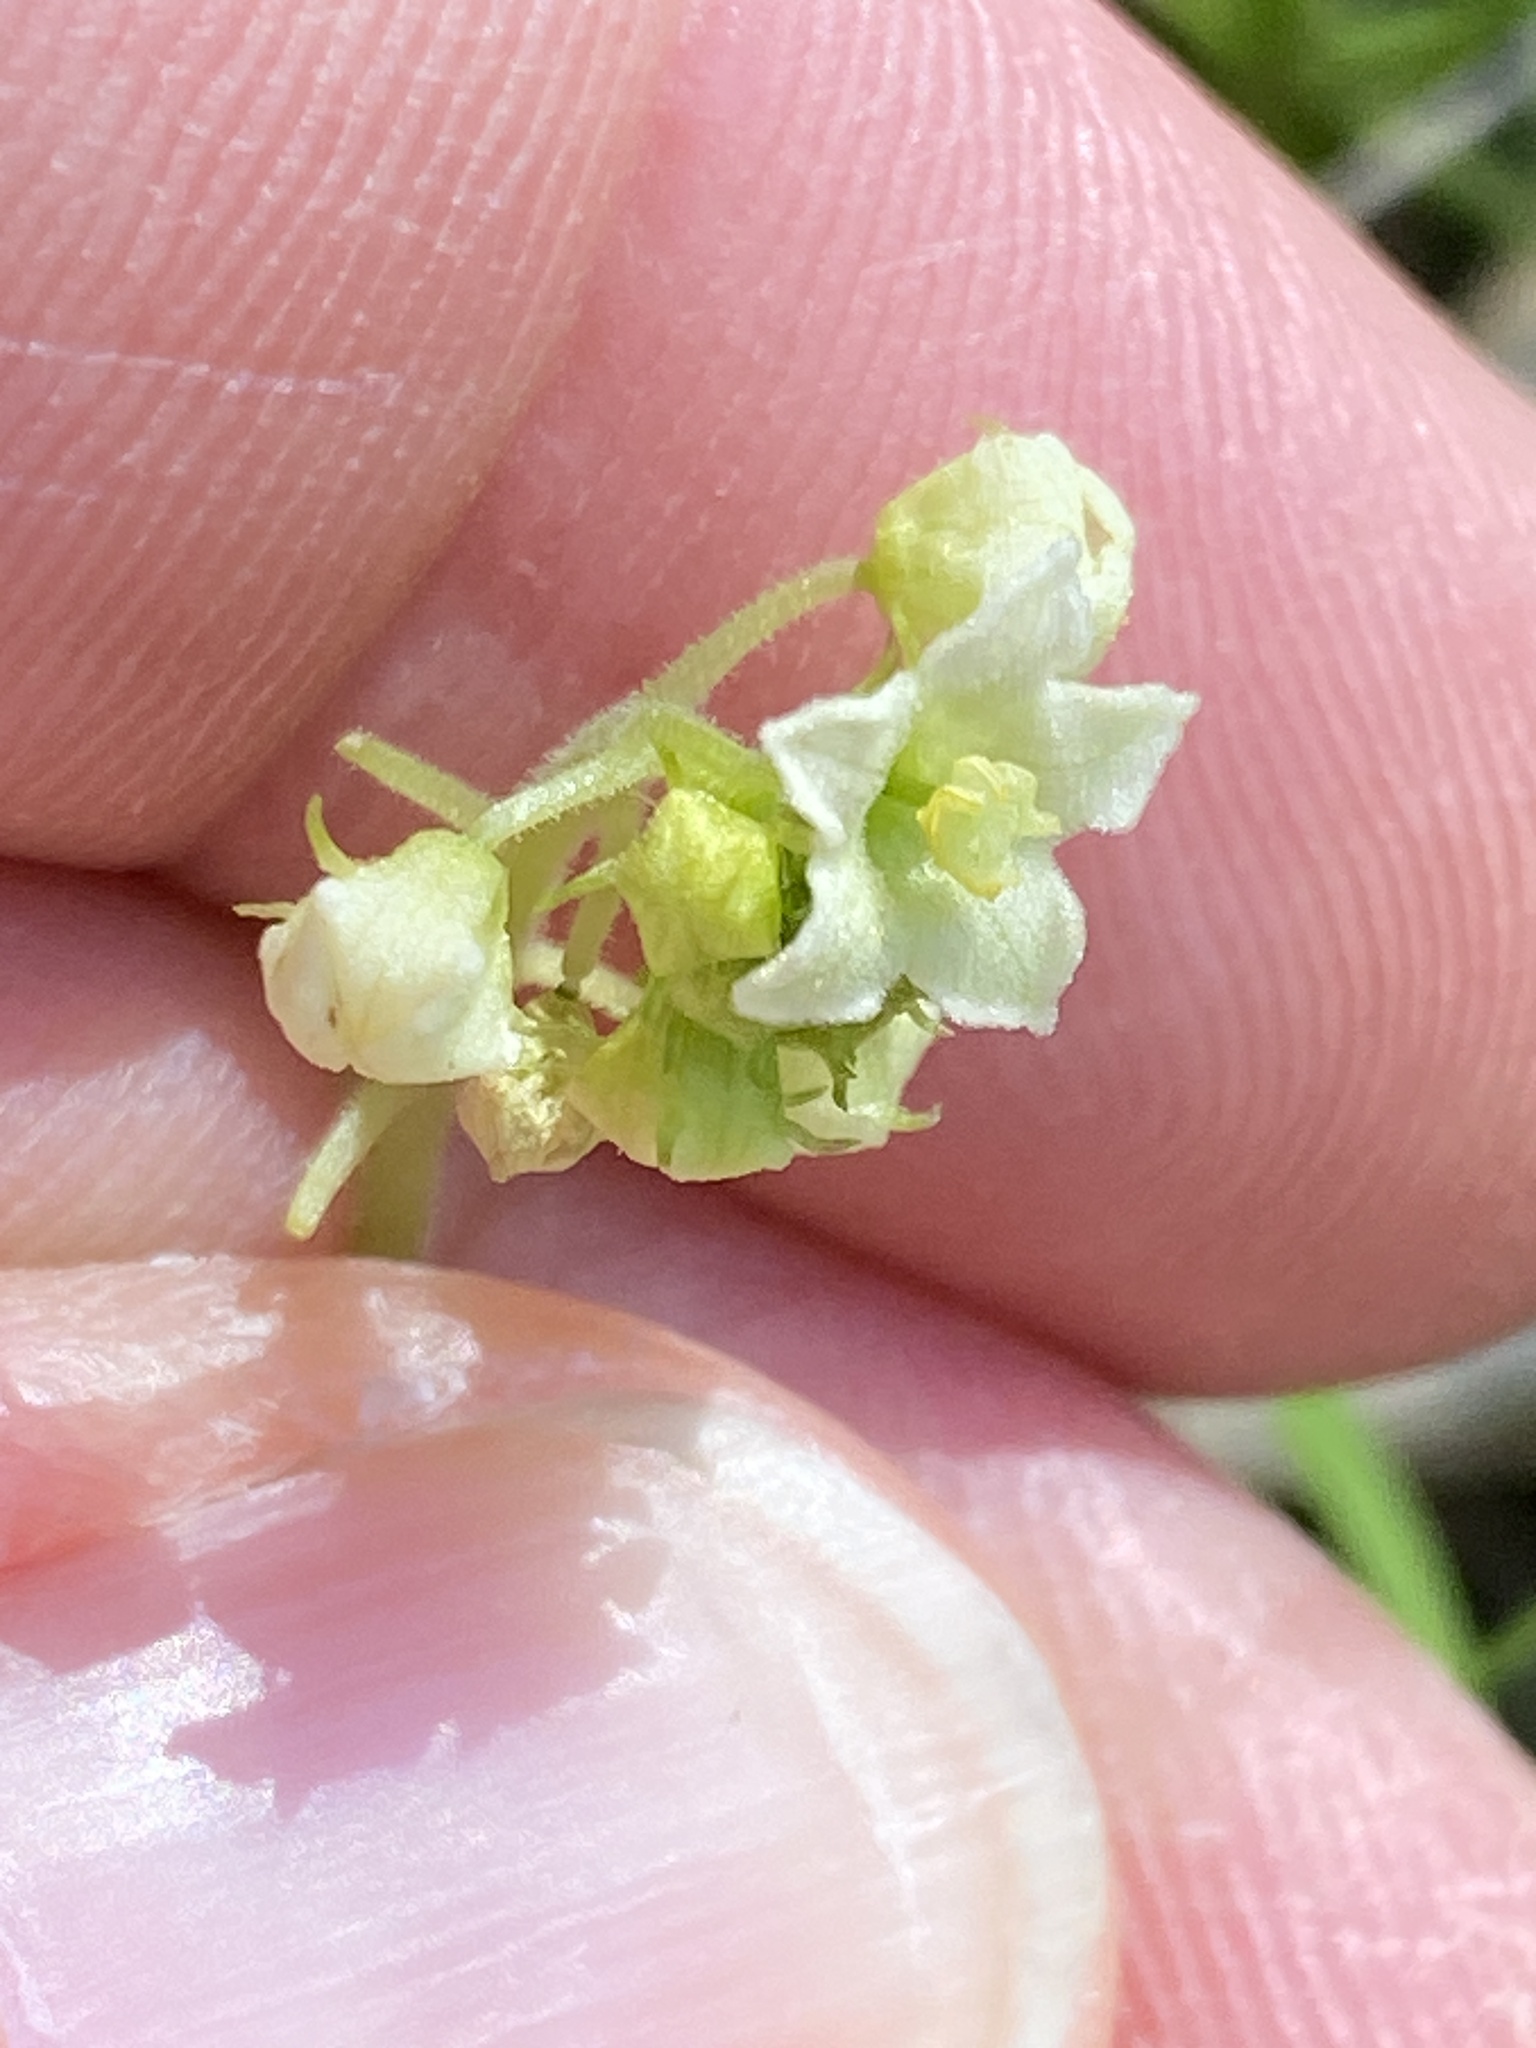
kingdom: Plantae
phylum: Tracheophyta
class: Magnoliopsida
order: Cucurbitales
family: Cucurbitaceae
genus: Sicyos
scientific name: Sicyos australis
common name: Angle-cucumber
